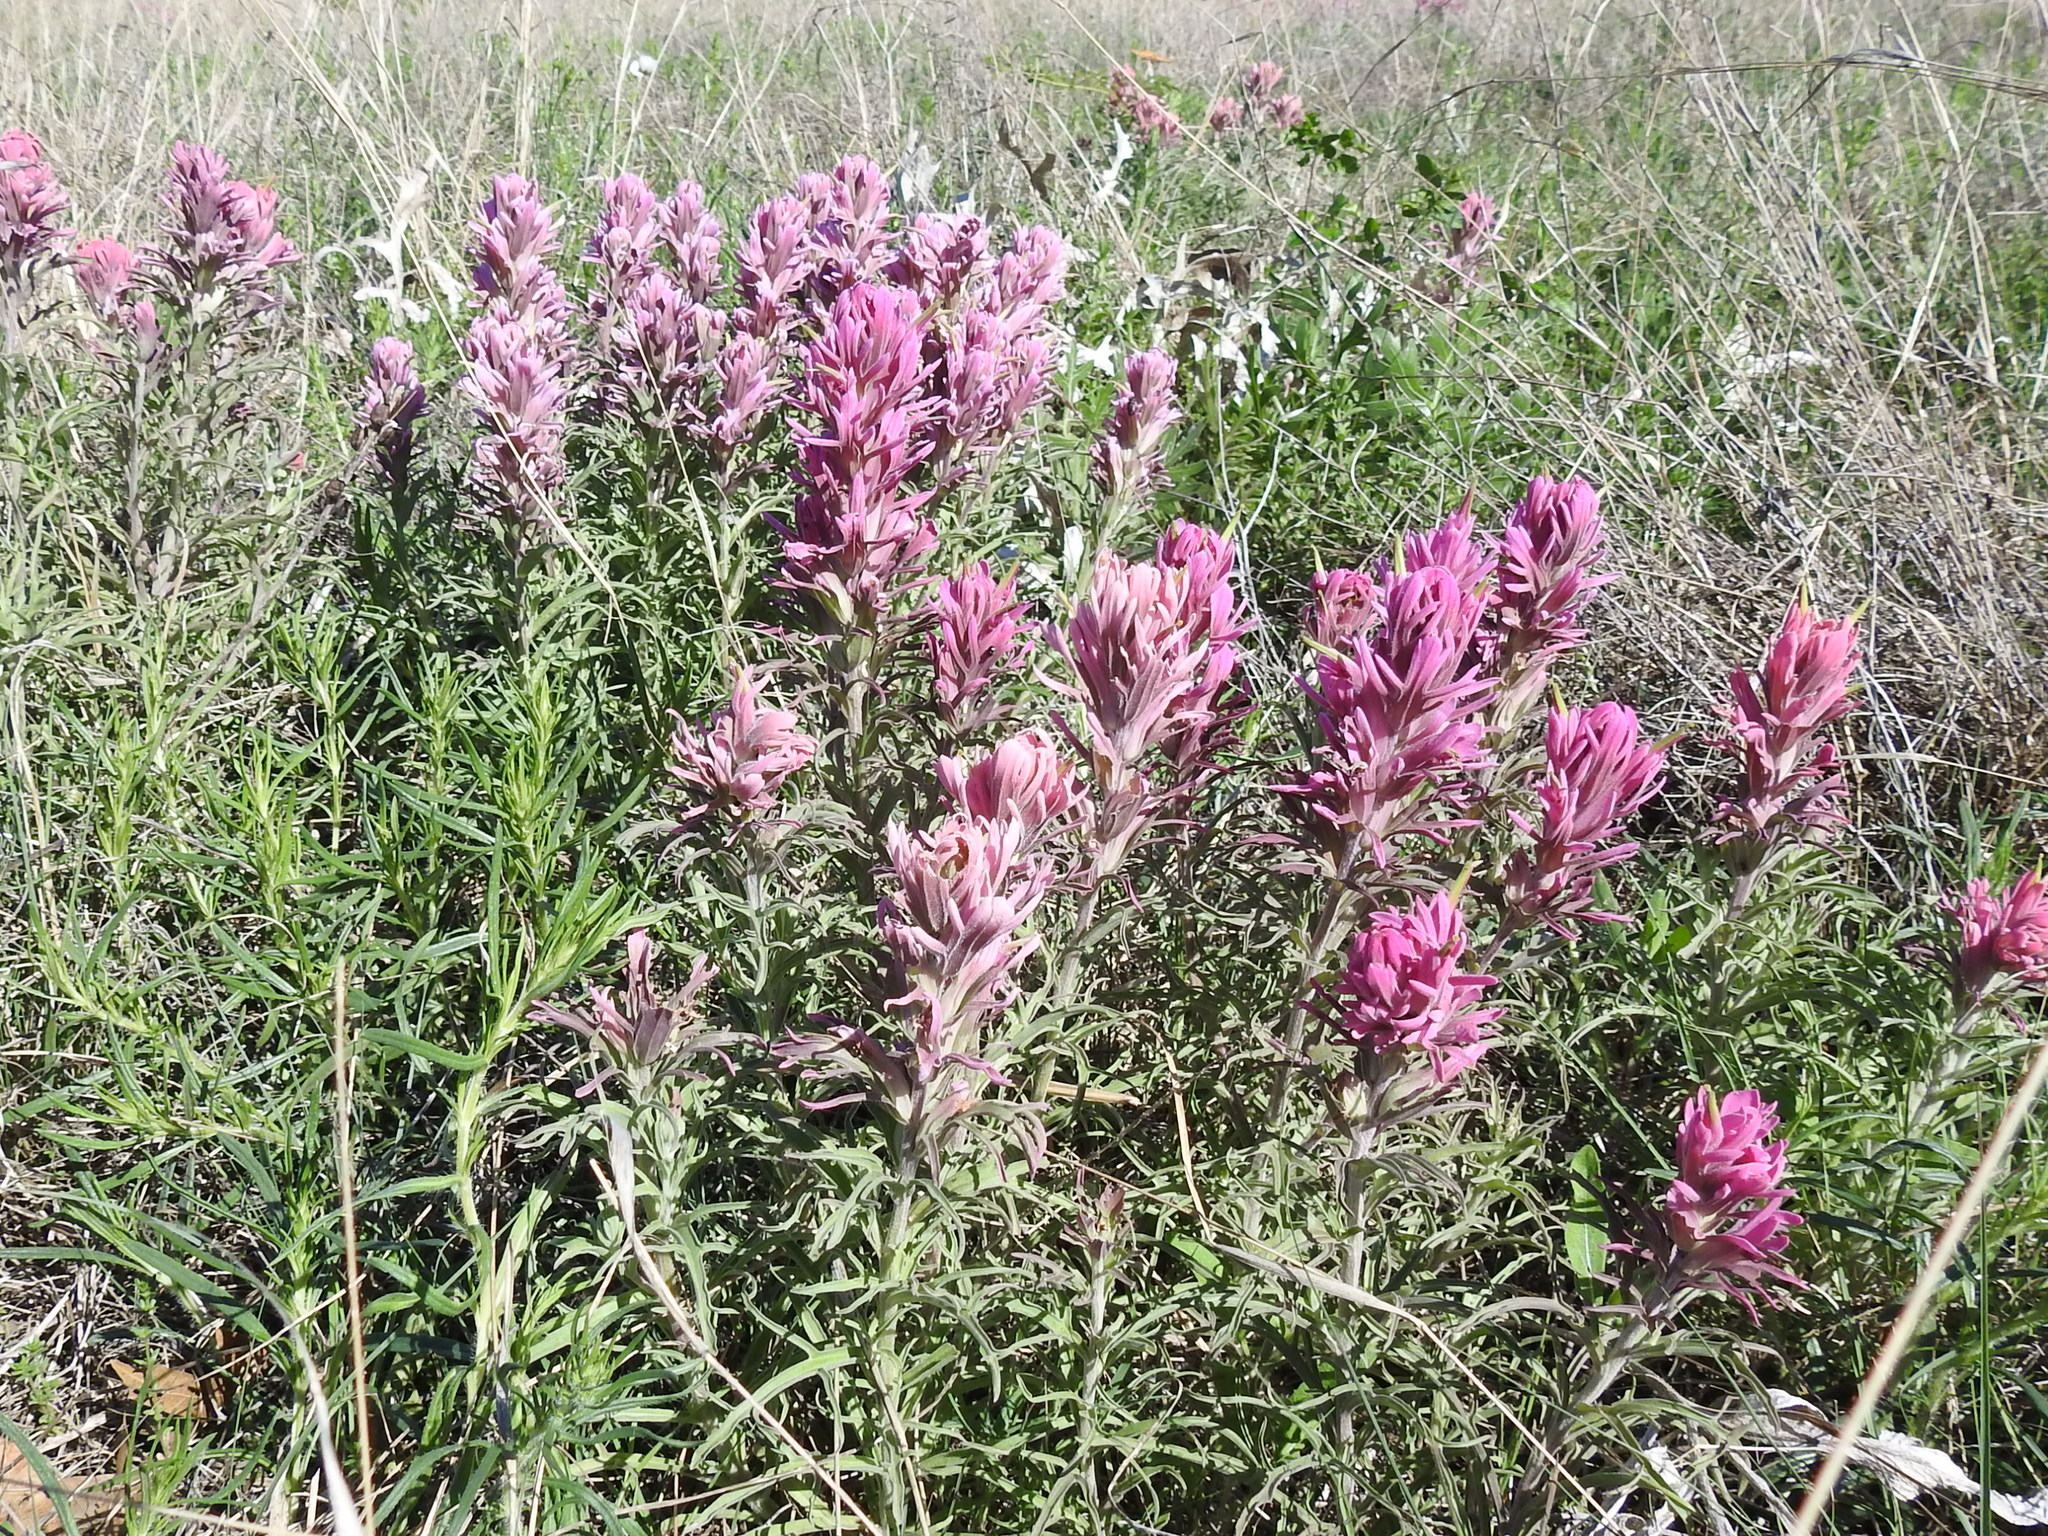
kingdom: Plantae
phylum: Tracheophyta
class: Magnoliopsida
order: Lamiales
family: Orobanchaceae
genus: Castilleja
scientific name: Castilleja purpurea
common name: Plains paintbrush
